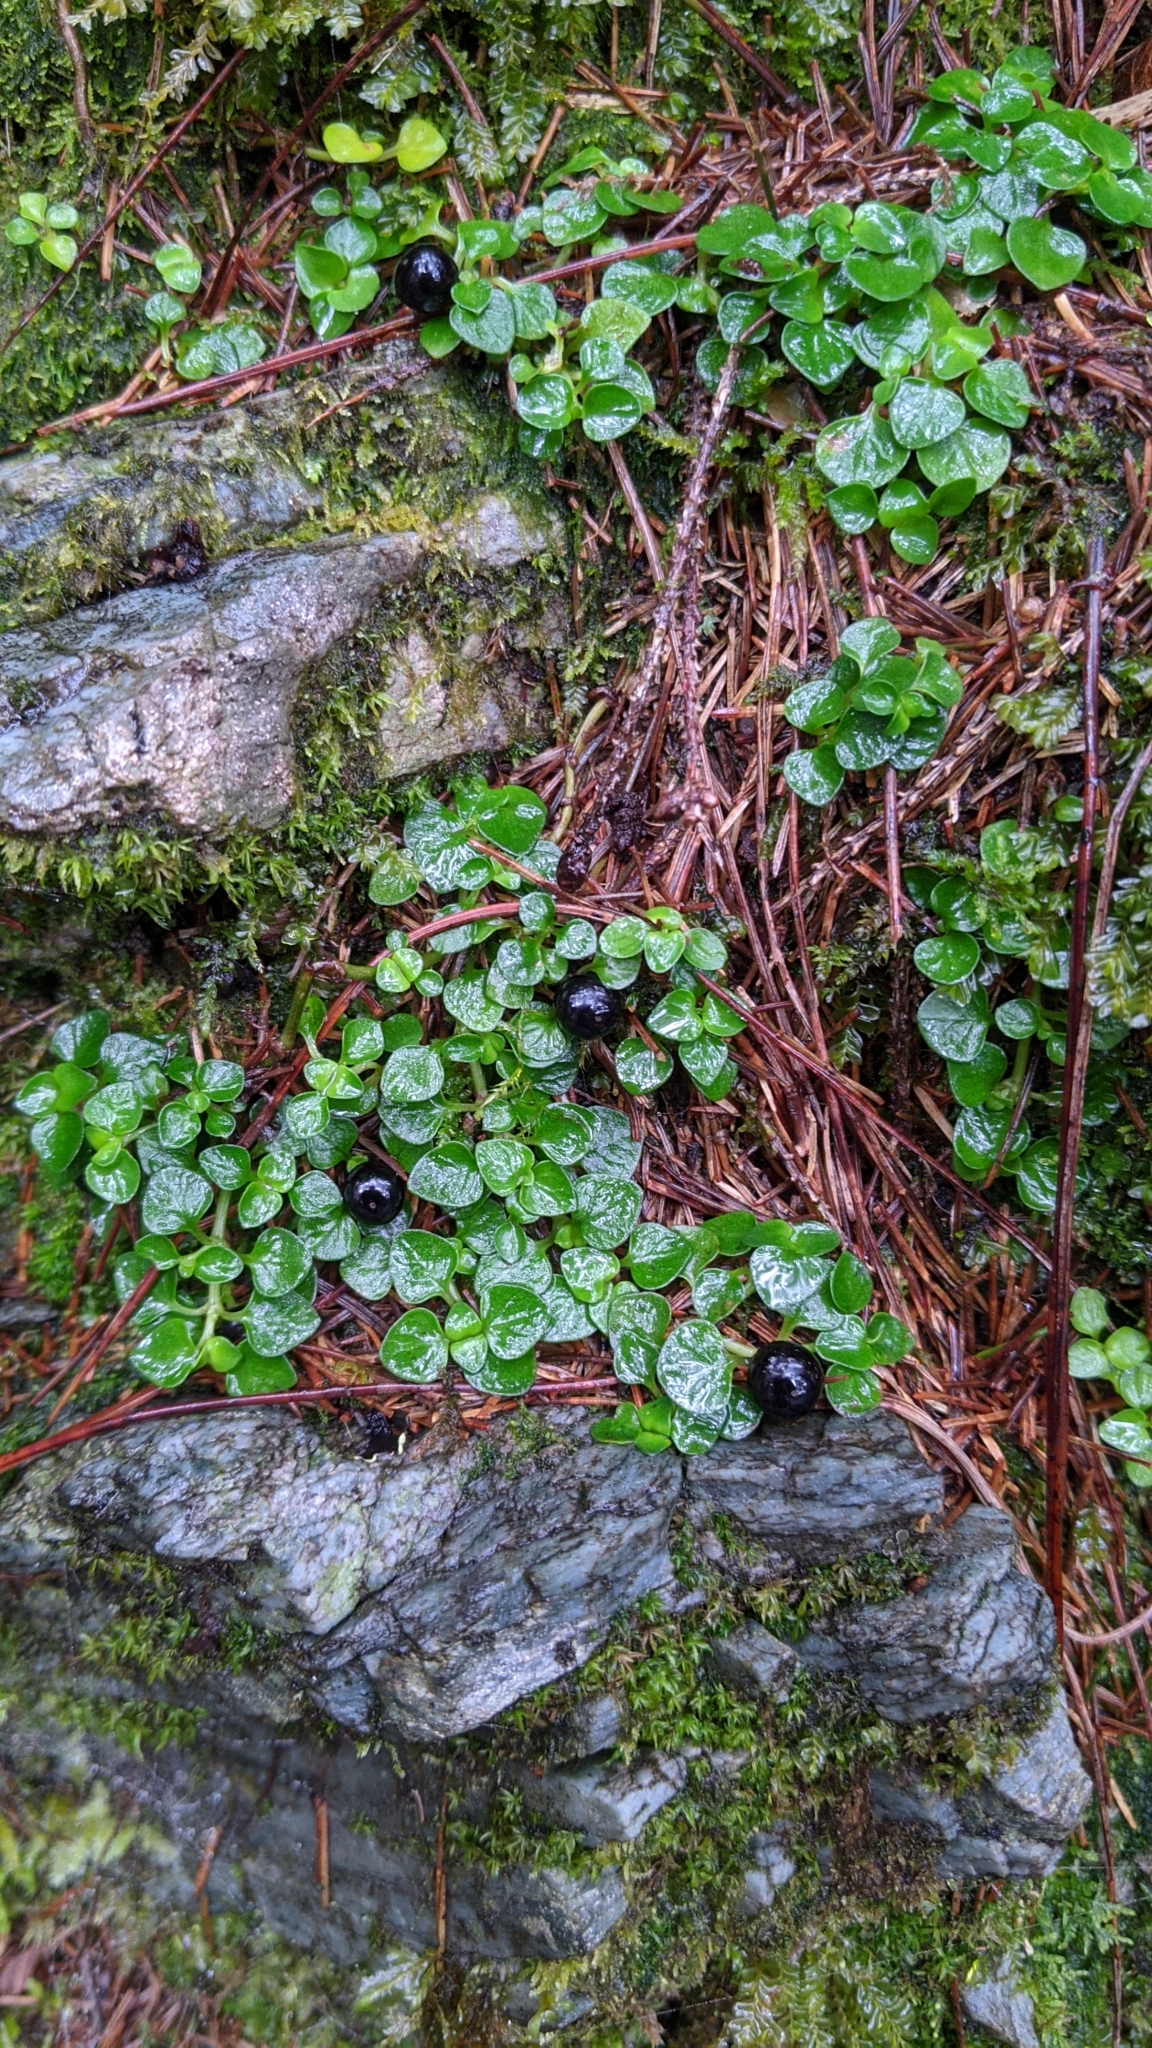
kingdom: Plantae
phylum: Tracheophyta
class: Magnoliopsida
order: Gentianales
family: Rubiaceae
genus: Nertera
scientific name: Nertera nigricarpa
